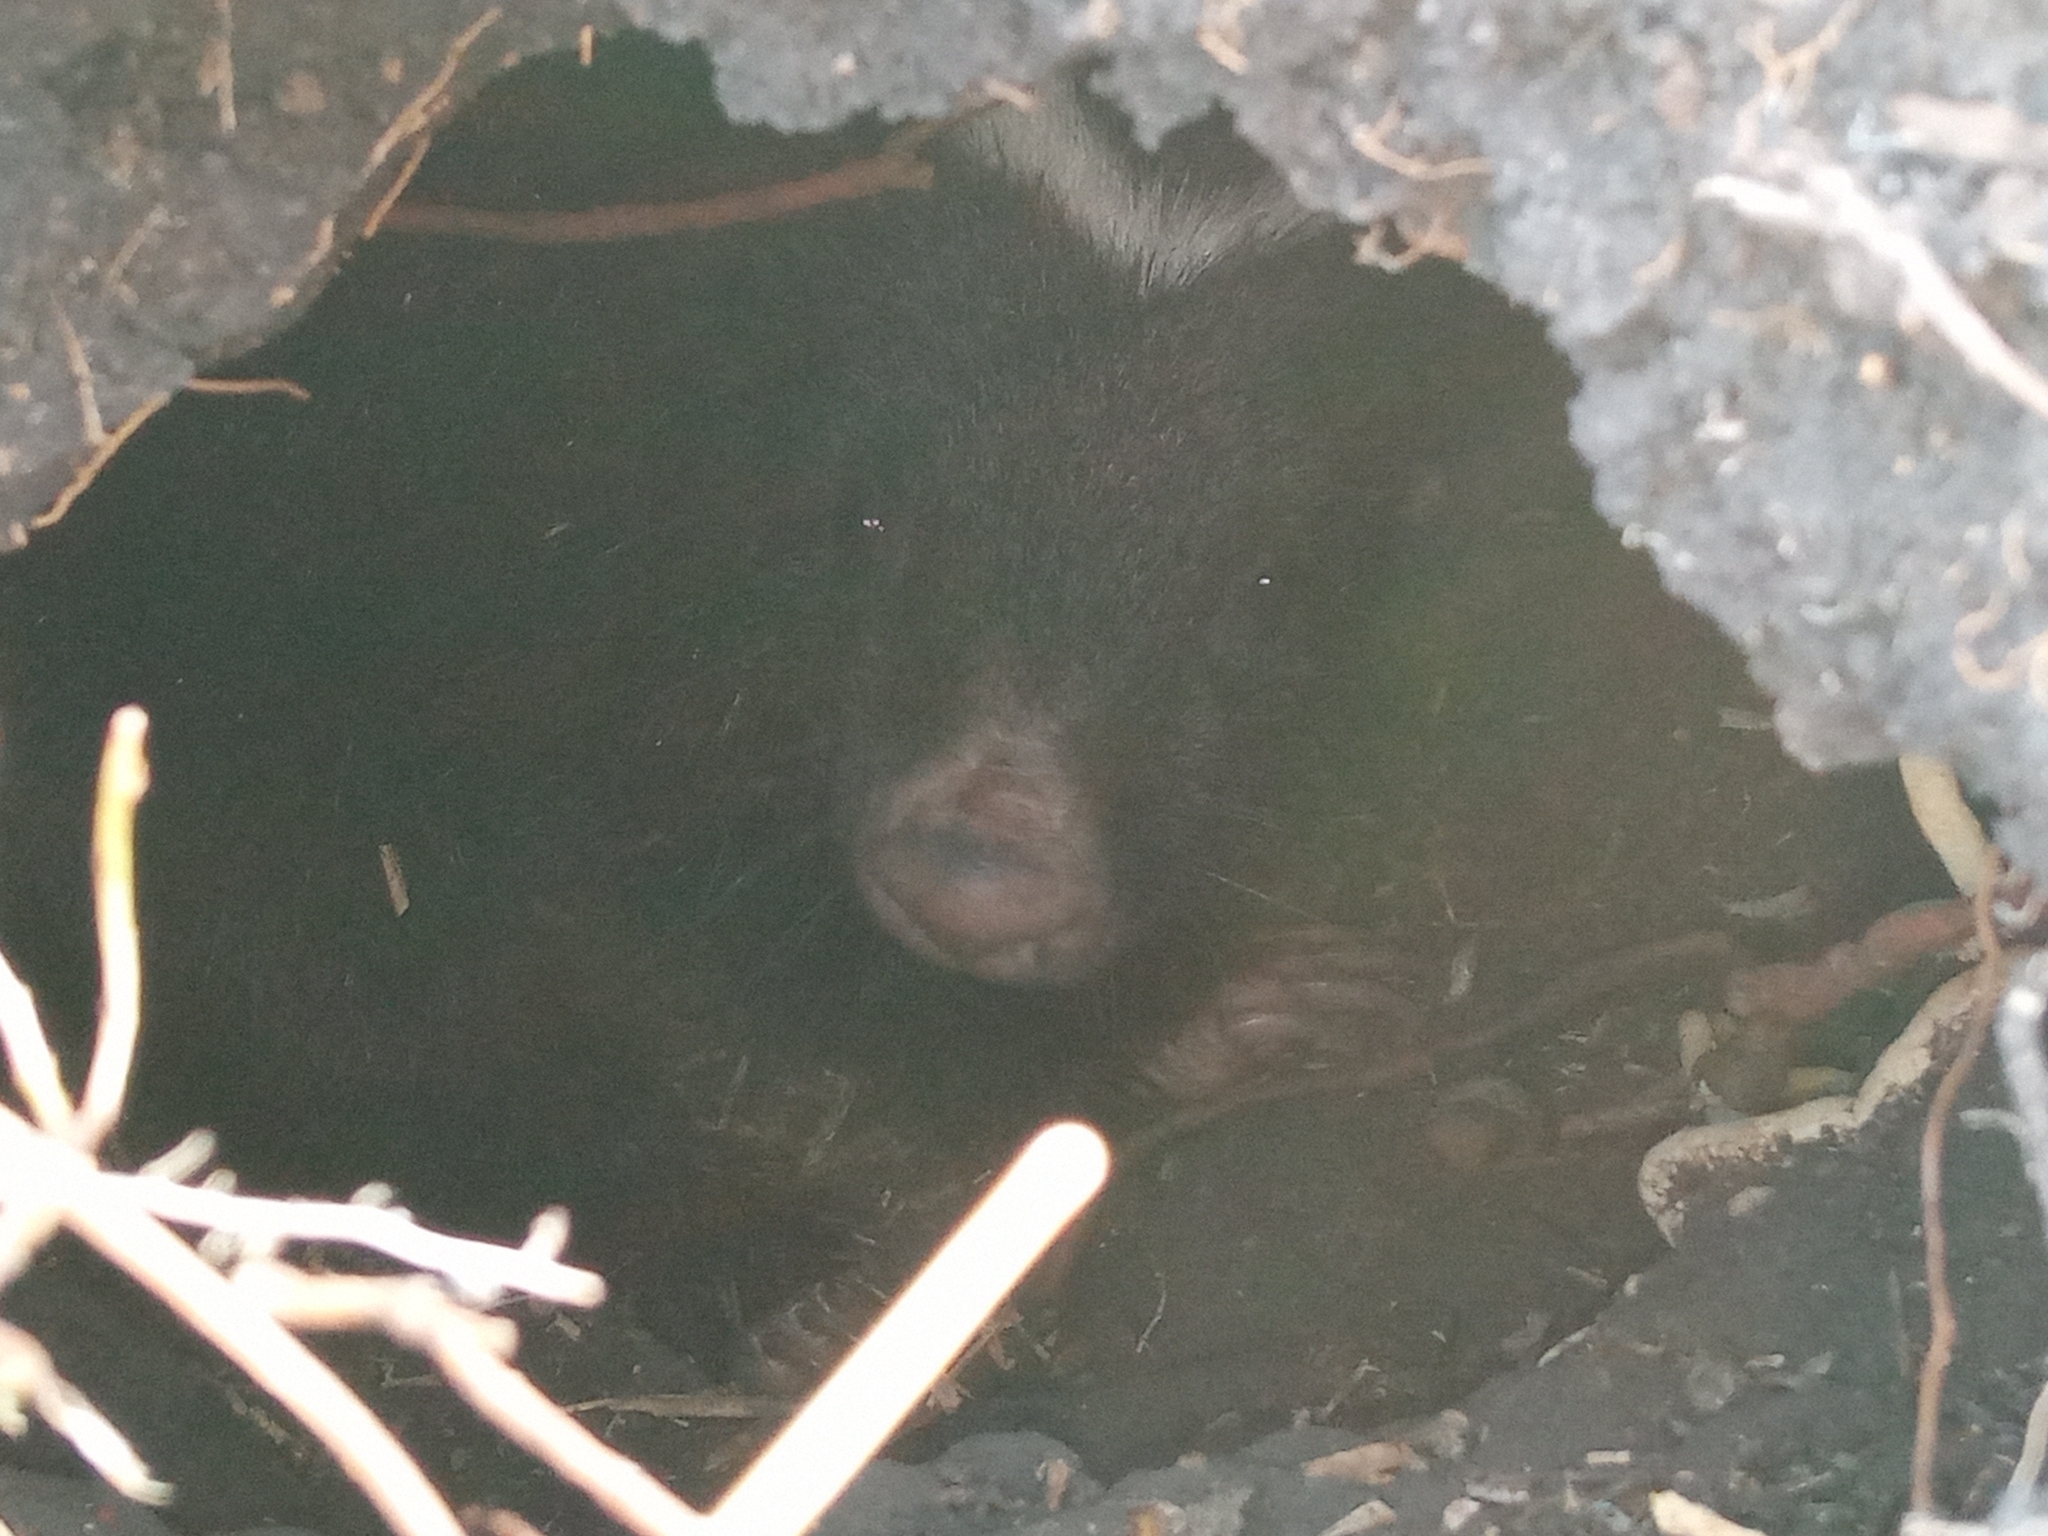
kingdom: Animalia
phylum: Chordata
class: Mammalia
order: Carnivora
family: Mephitidae
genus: Conepatus
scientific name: Conepatus chinga
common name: Molina's hog-nosed skunk
